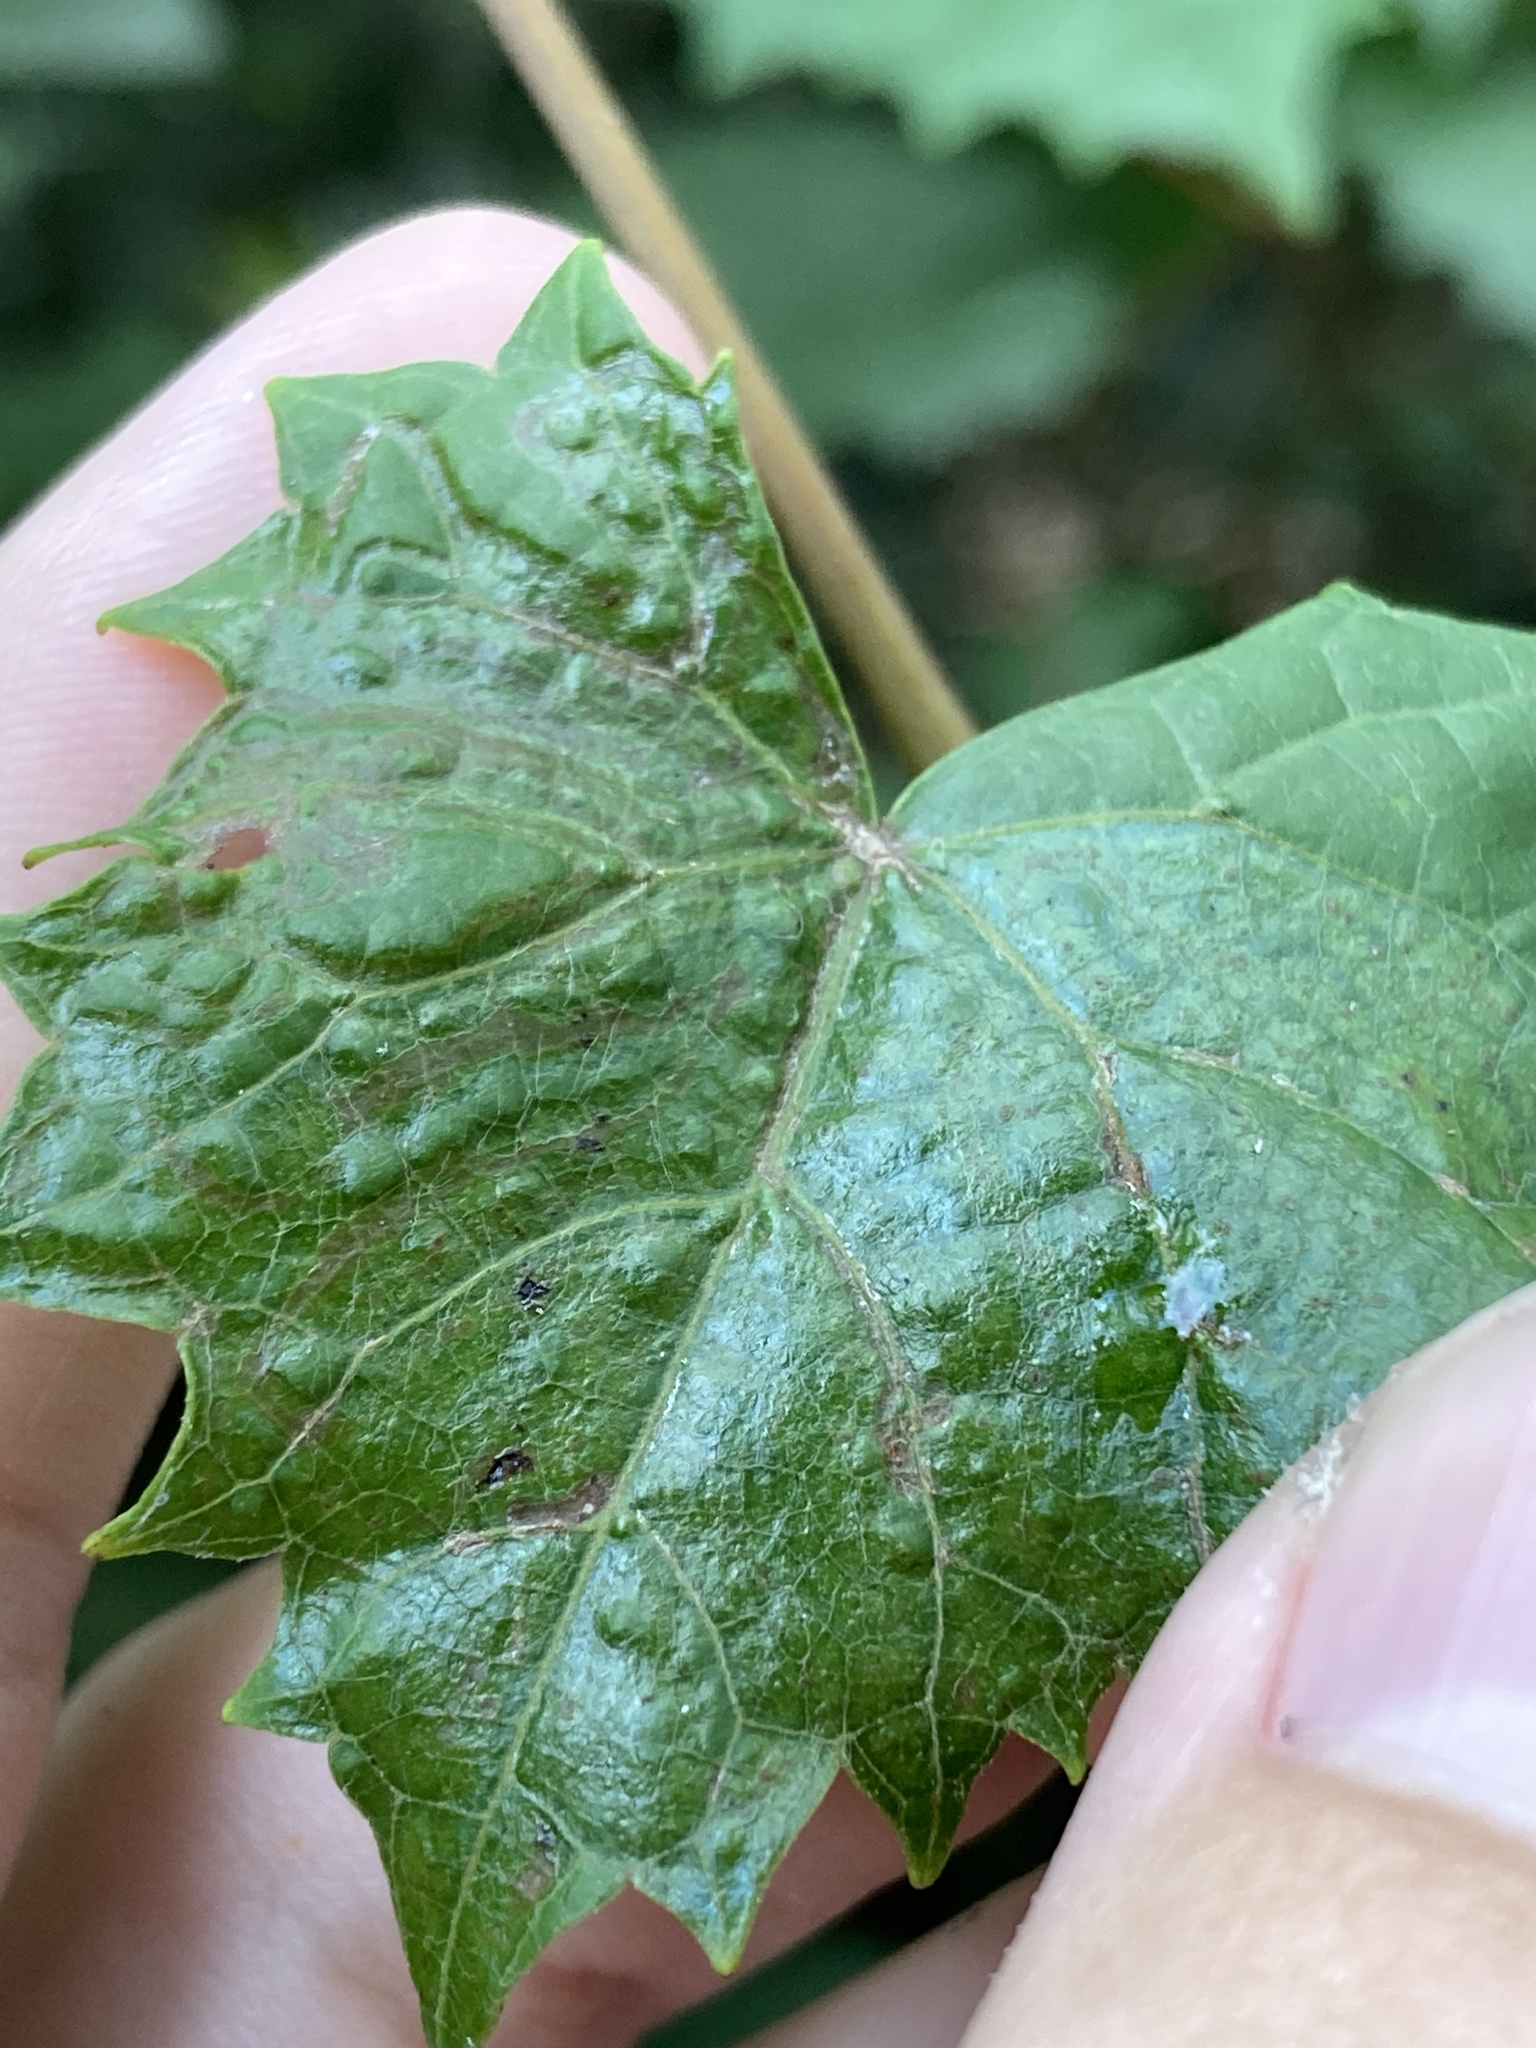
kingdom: Animalia
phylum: Arthropoda
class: Insecta
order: Lepidoptera
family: Gracillariidae
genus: Phyllocnistis
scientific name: Phyllocnistis vitegenella
